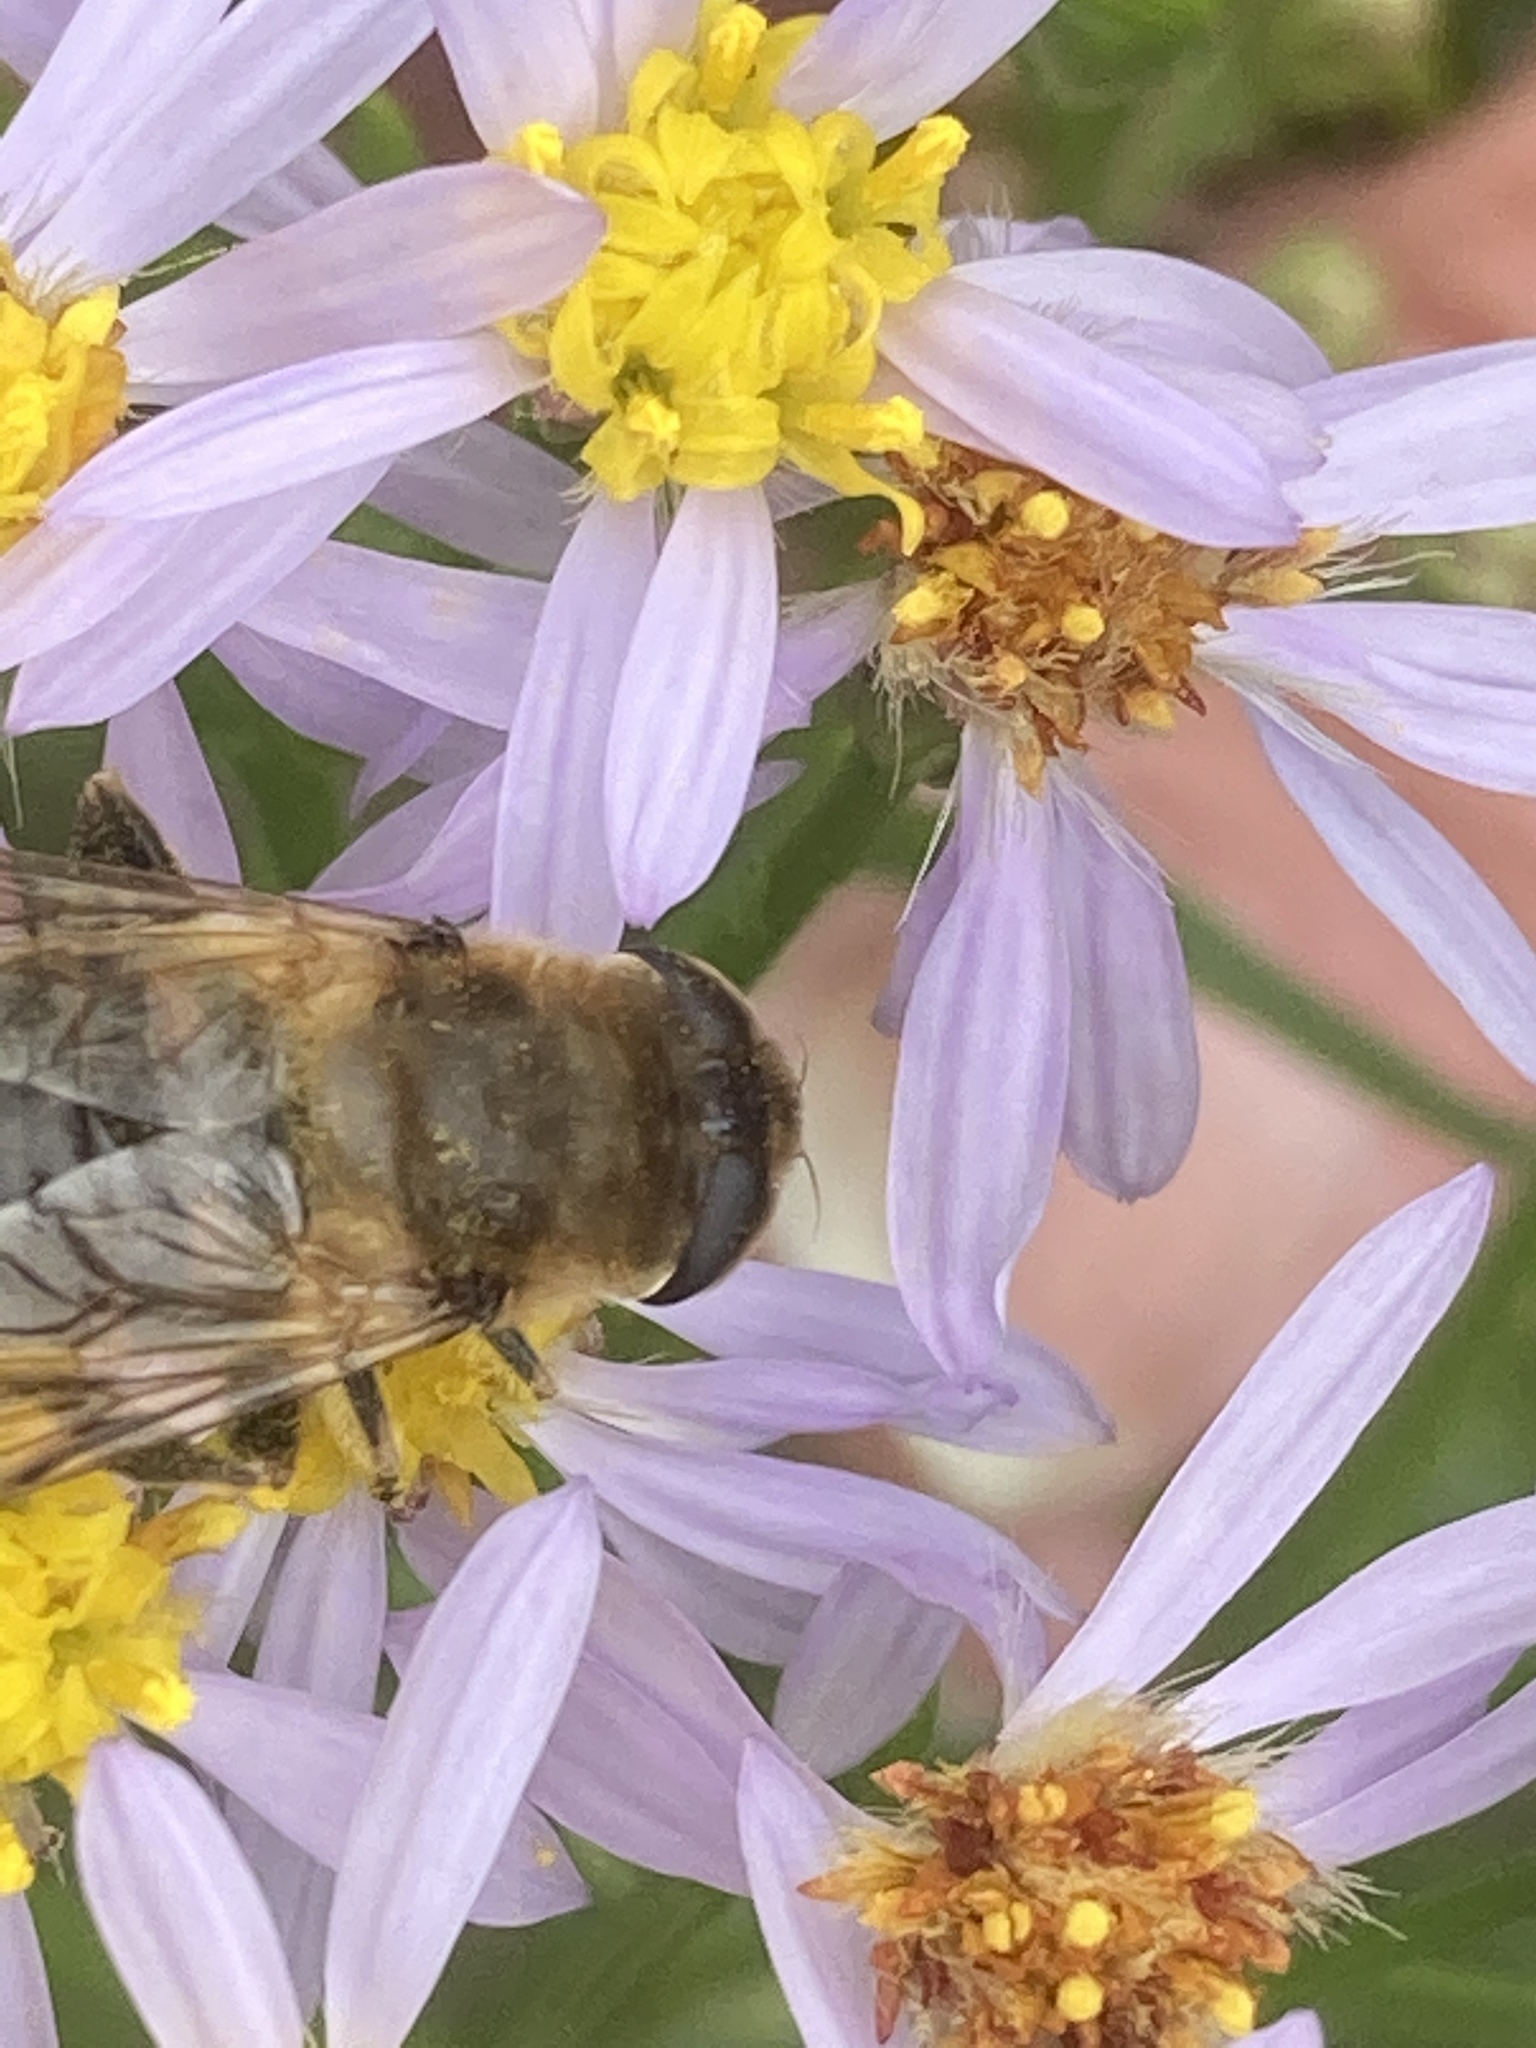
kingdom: Animalia
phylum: Arthropoda
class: Insecta
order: Diptera
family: Syrphidae
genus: Eristalis
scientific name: Eristalis tenax
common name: Drone fly
